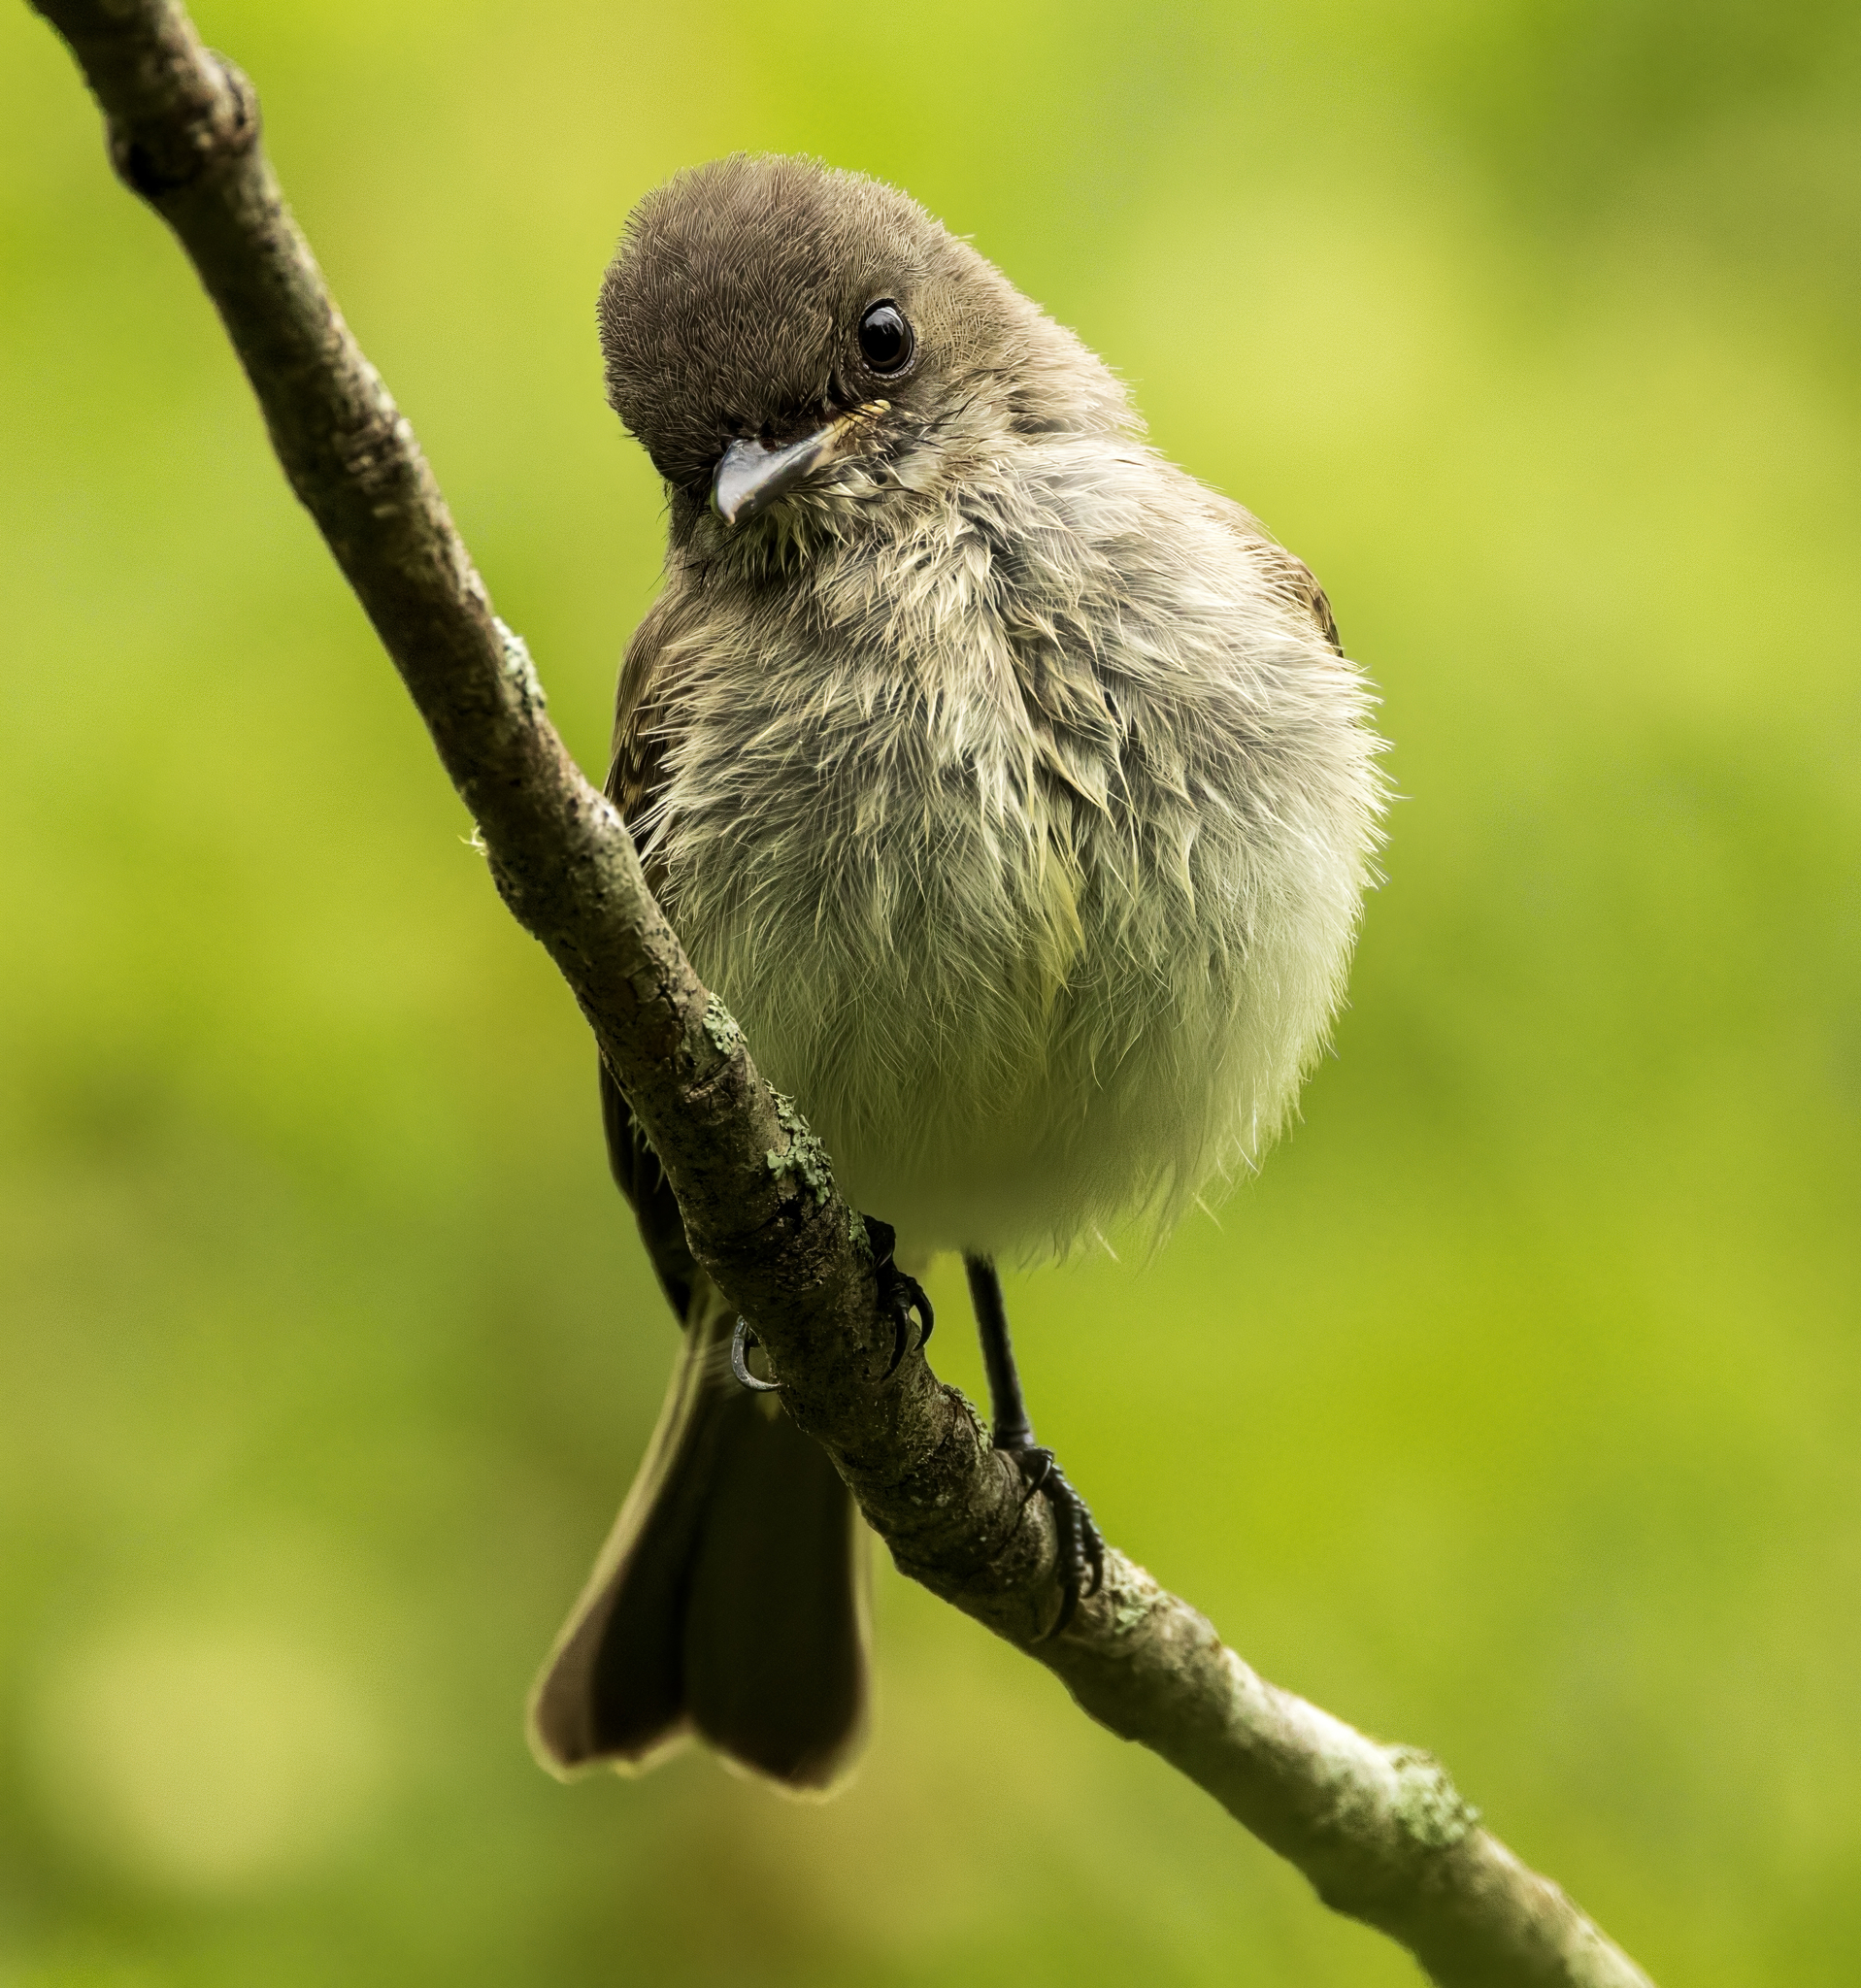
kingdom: Animalia
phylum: Chordata
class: Aves
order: Passeriformes
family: Tyrannidae
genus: Sayornis
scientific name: Sayornis phoebe
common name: Eastern phoebe
